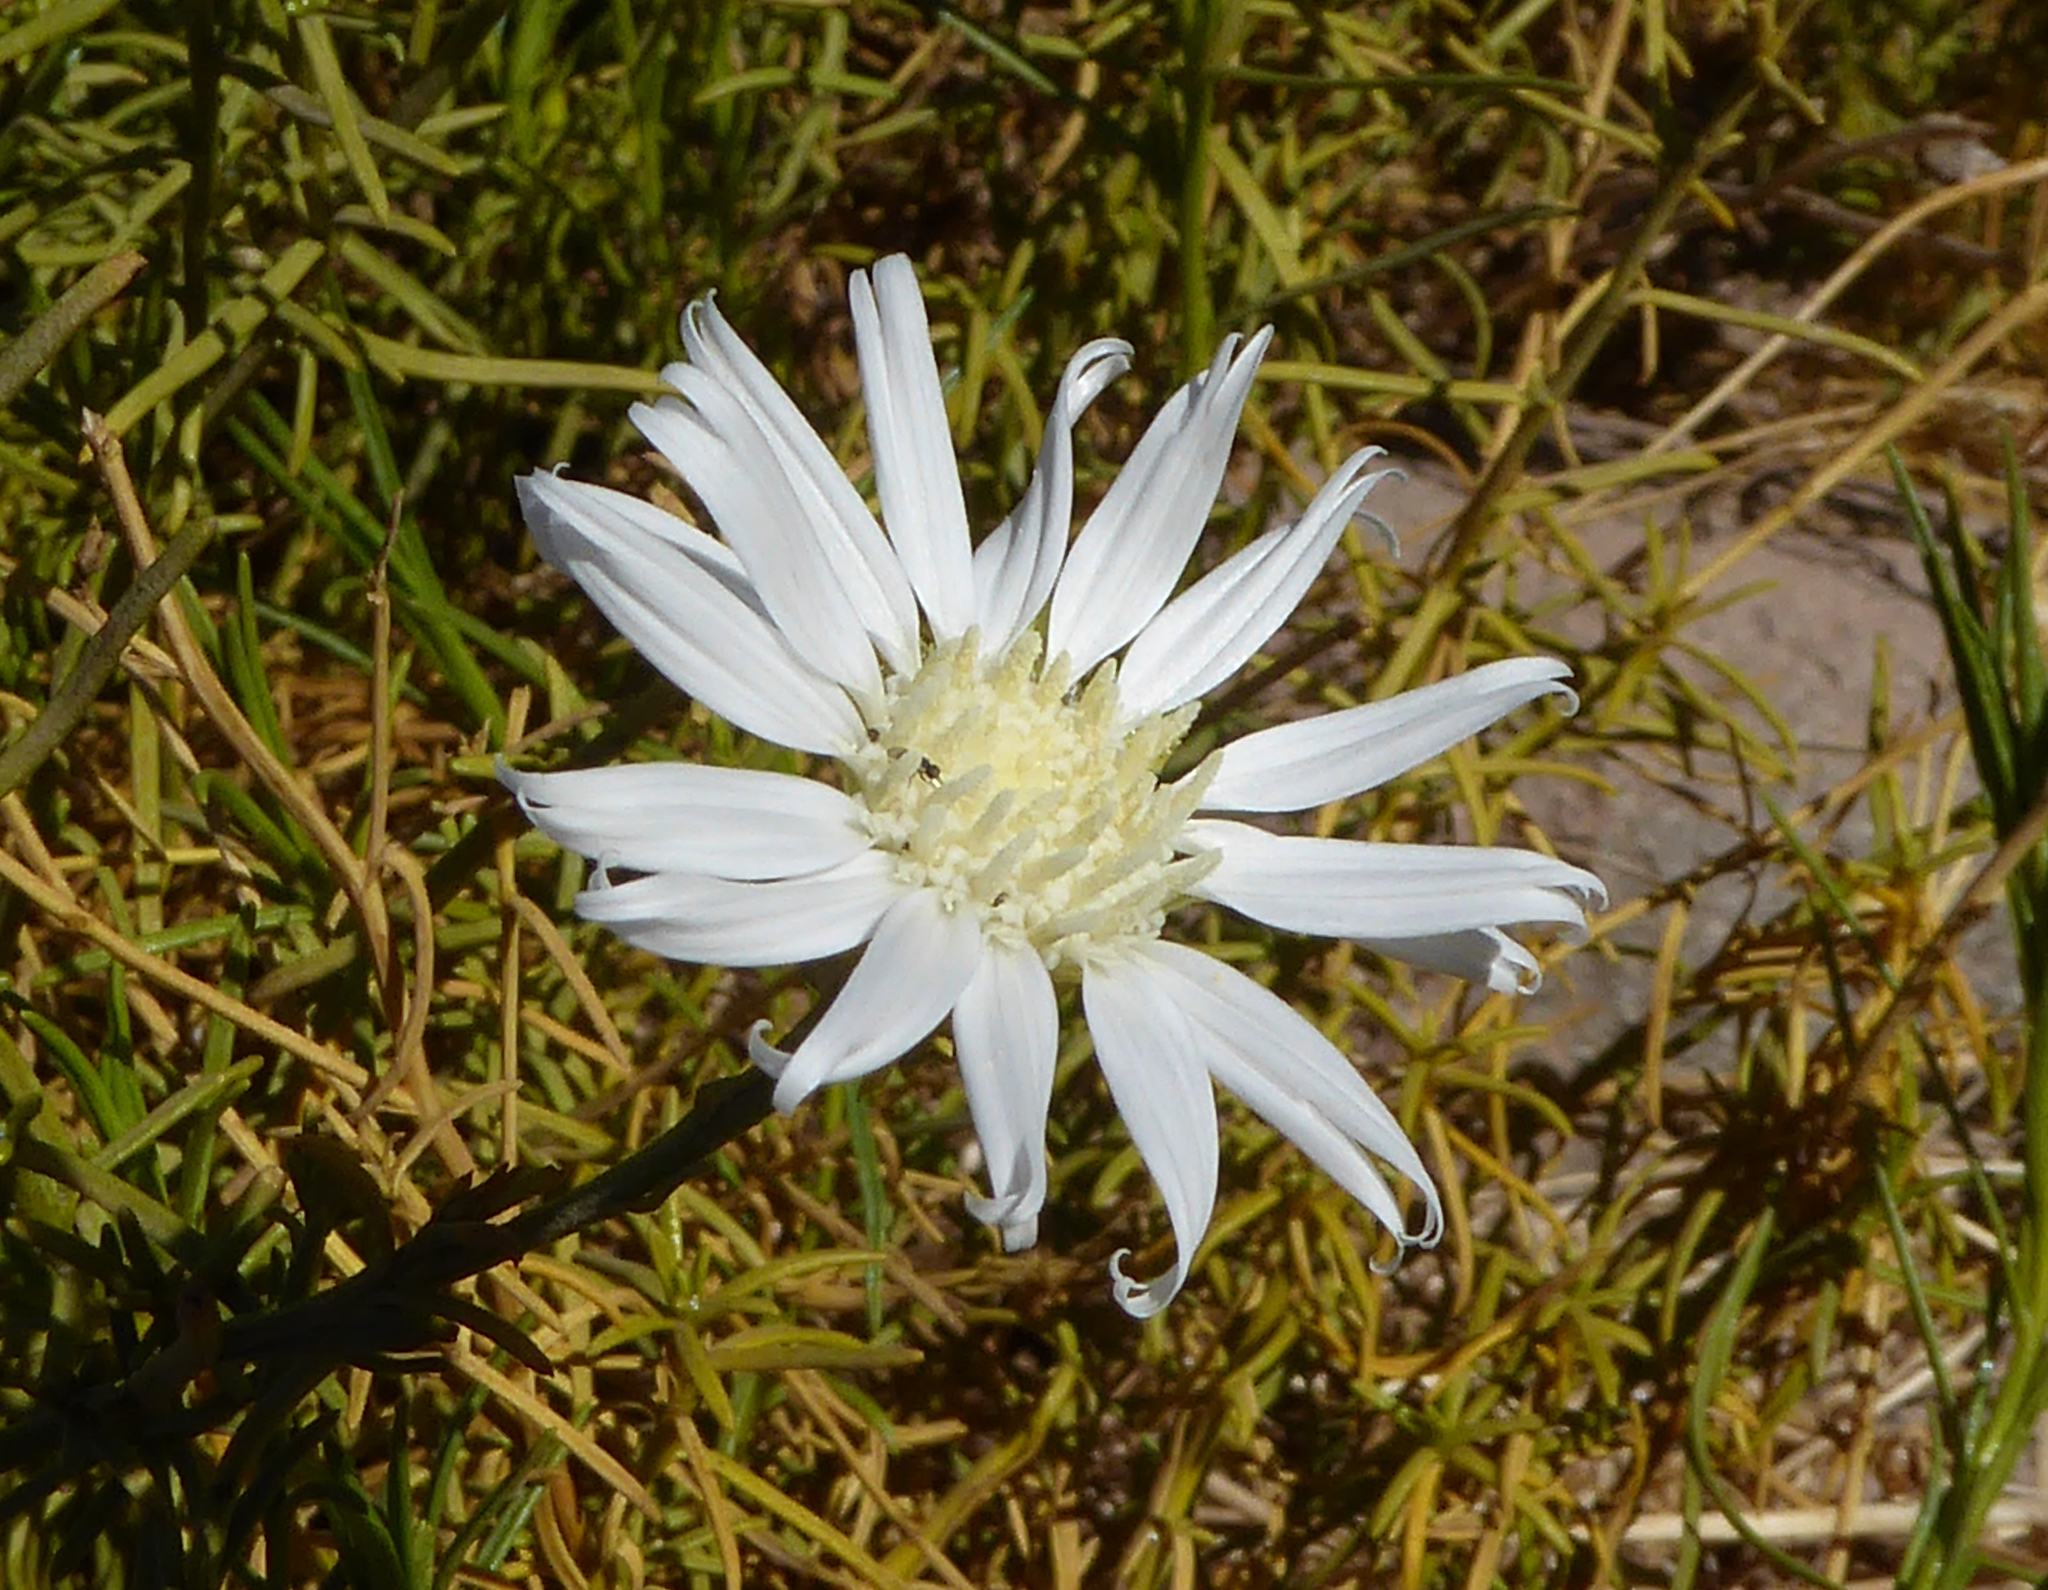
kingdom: Plantae
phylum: Tracheophyta
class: Magnoliopsida
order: Asterales
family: Asteraceae
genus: Gutierrezia
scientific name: Gutierrezia gayana
